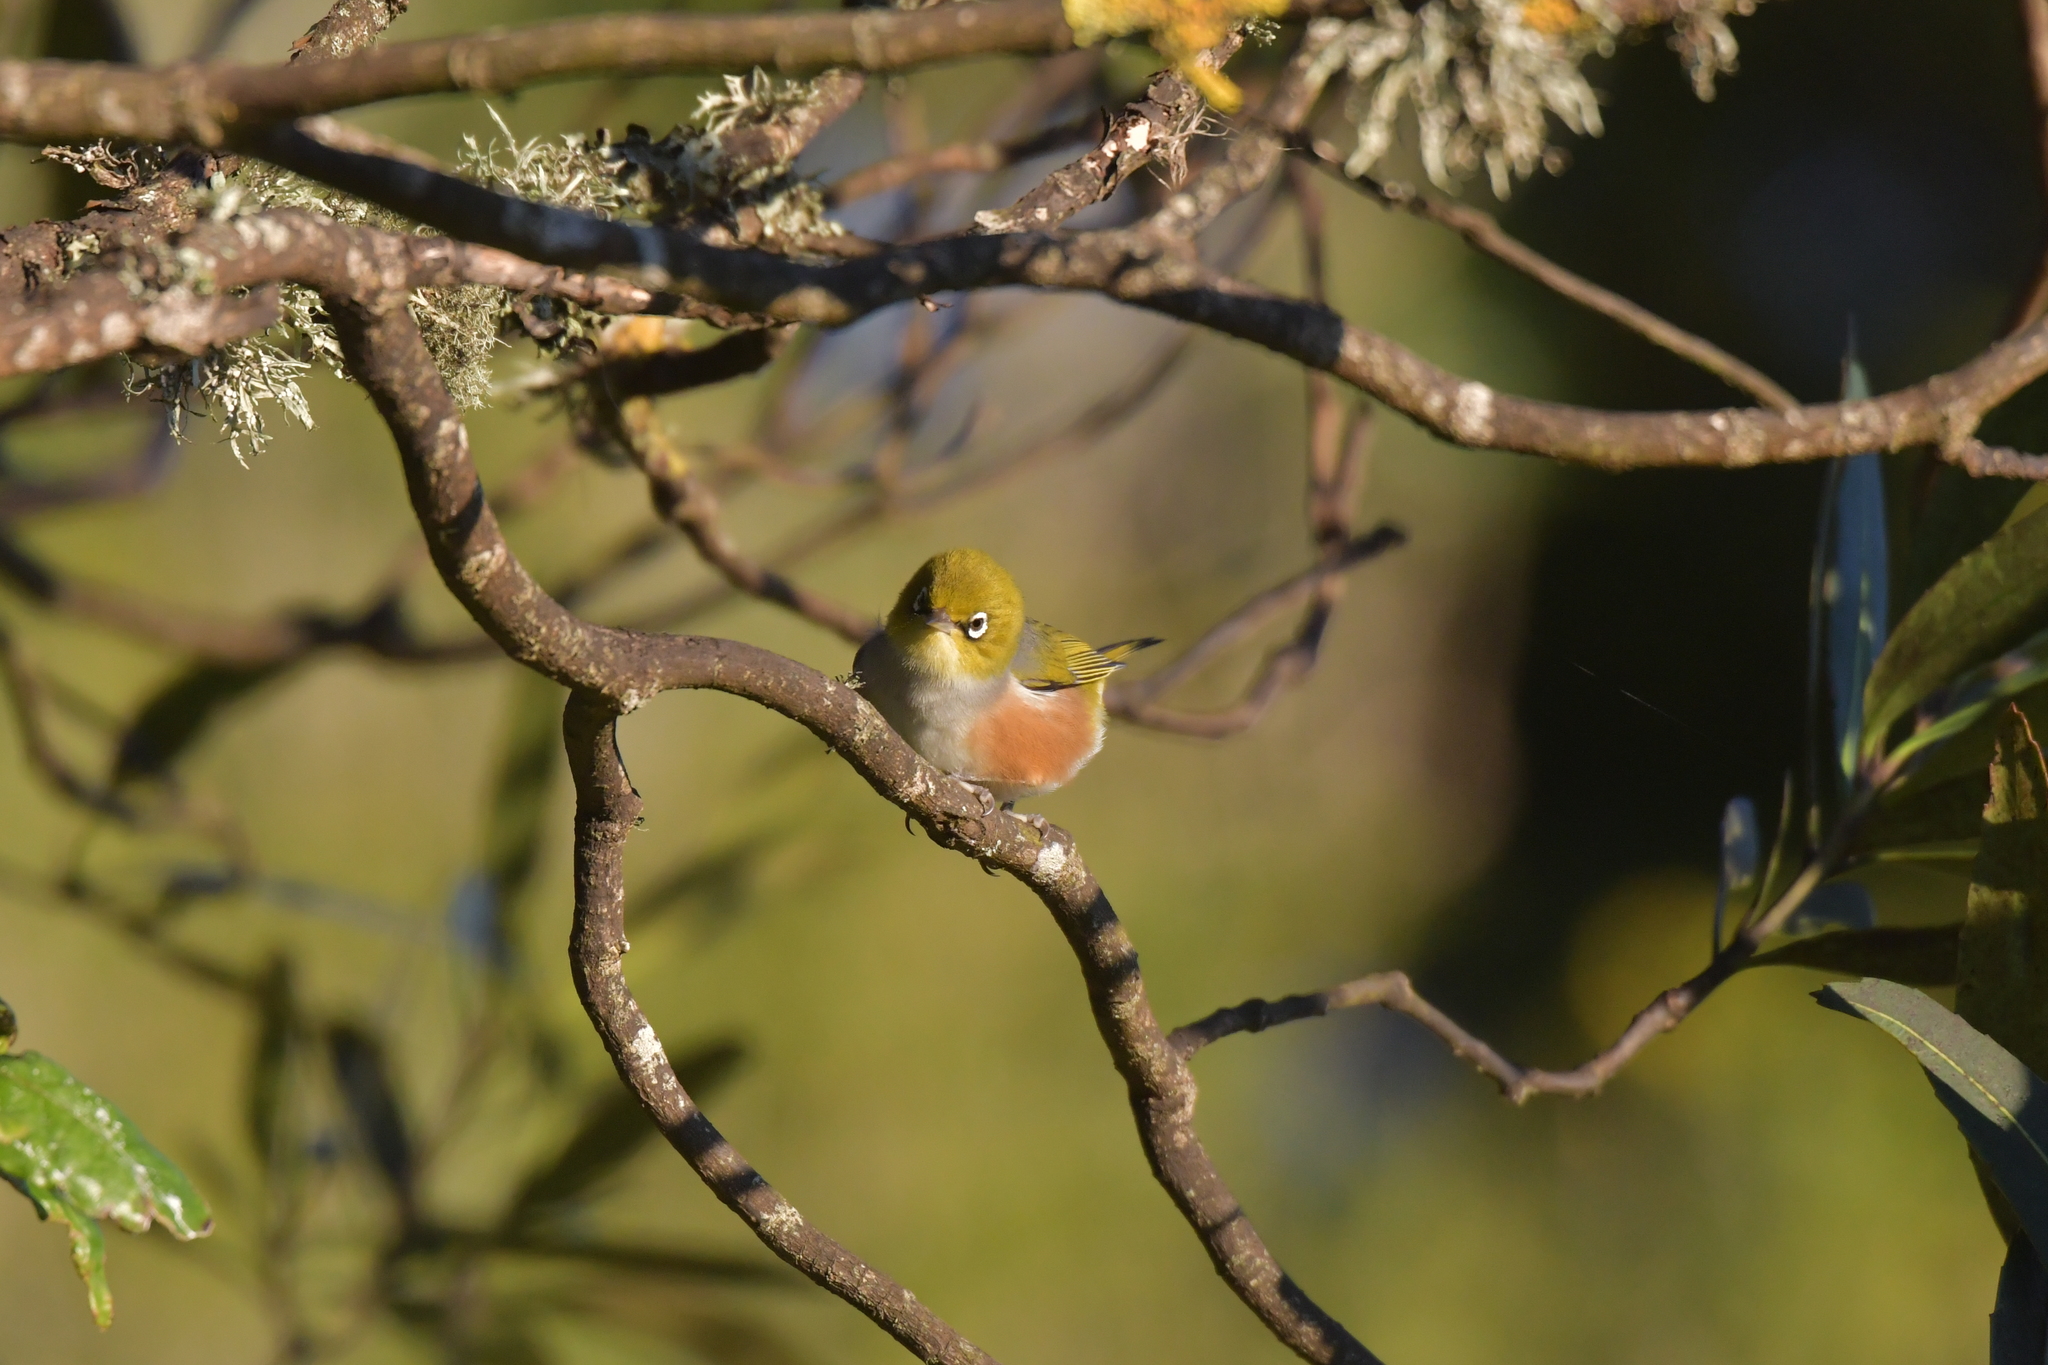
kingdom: Animalia
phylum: Chordata
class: Aves
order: Passeriformes
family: Zosteropidae
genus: Zosterops
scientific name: Zosterops lateralis
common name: Silvereye
